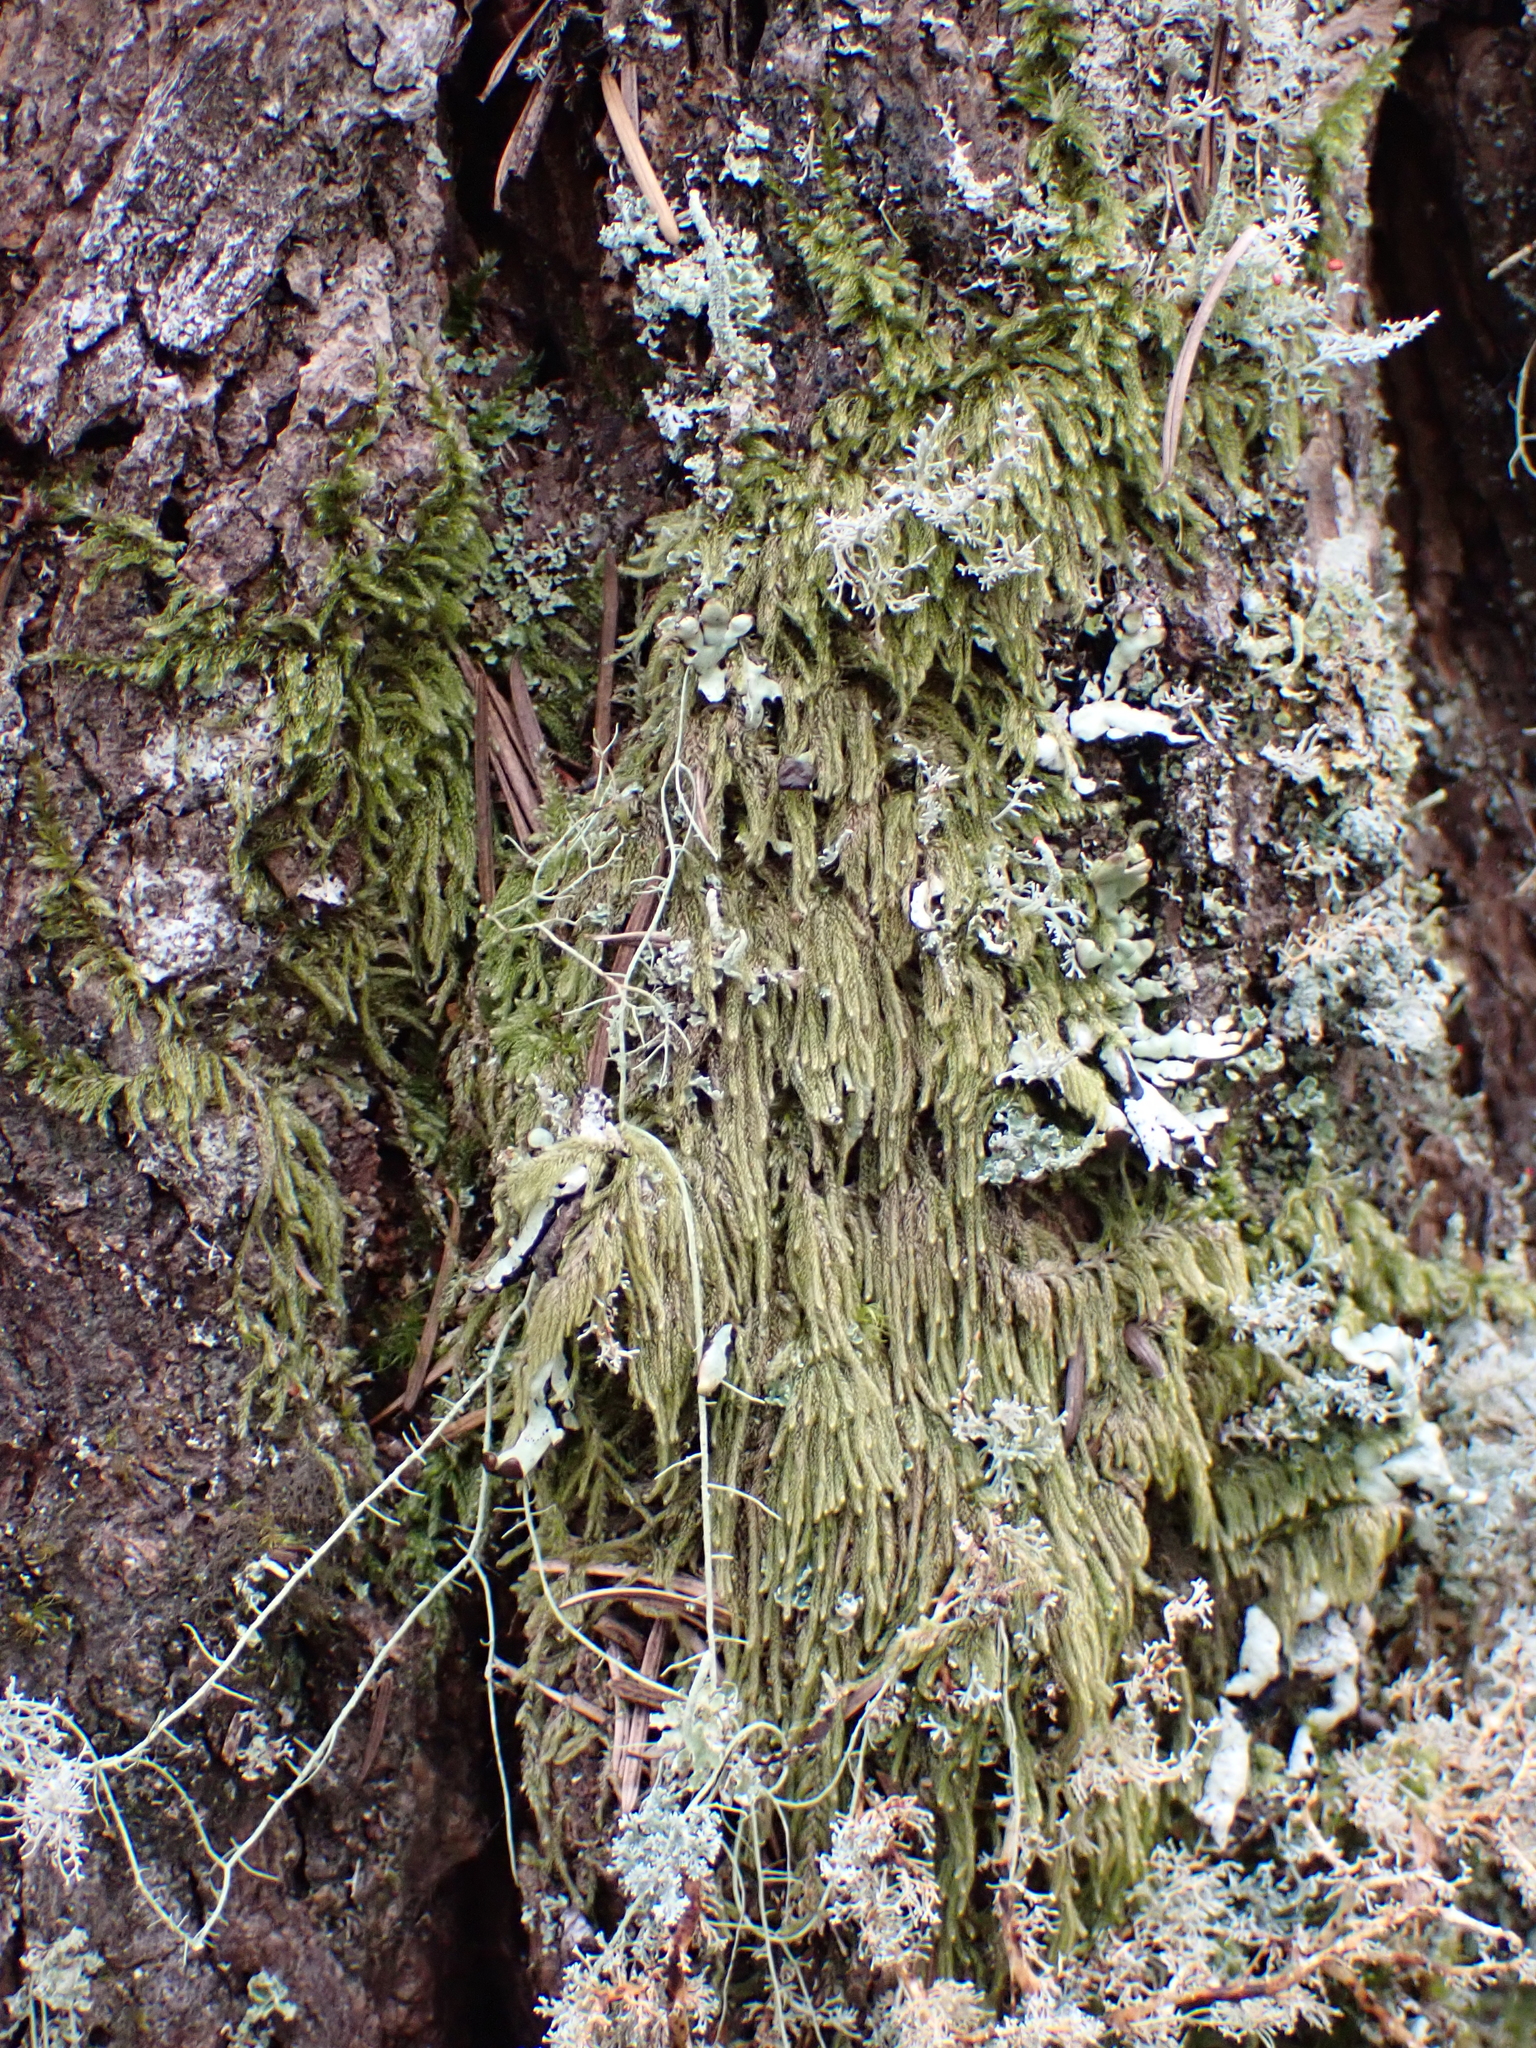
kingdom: Plantae
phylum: Bryophyta
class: Bryopsida
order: Hypnales
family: Pylaisiadelphaceae
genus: Trochophyllohypnum
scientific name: Trochophyllohypnum circinale
